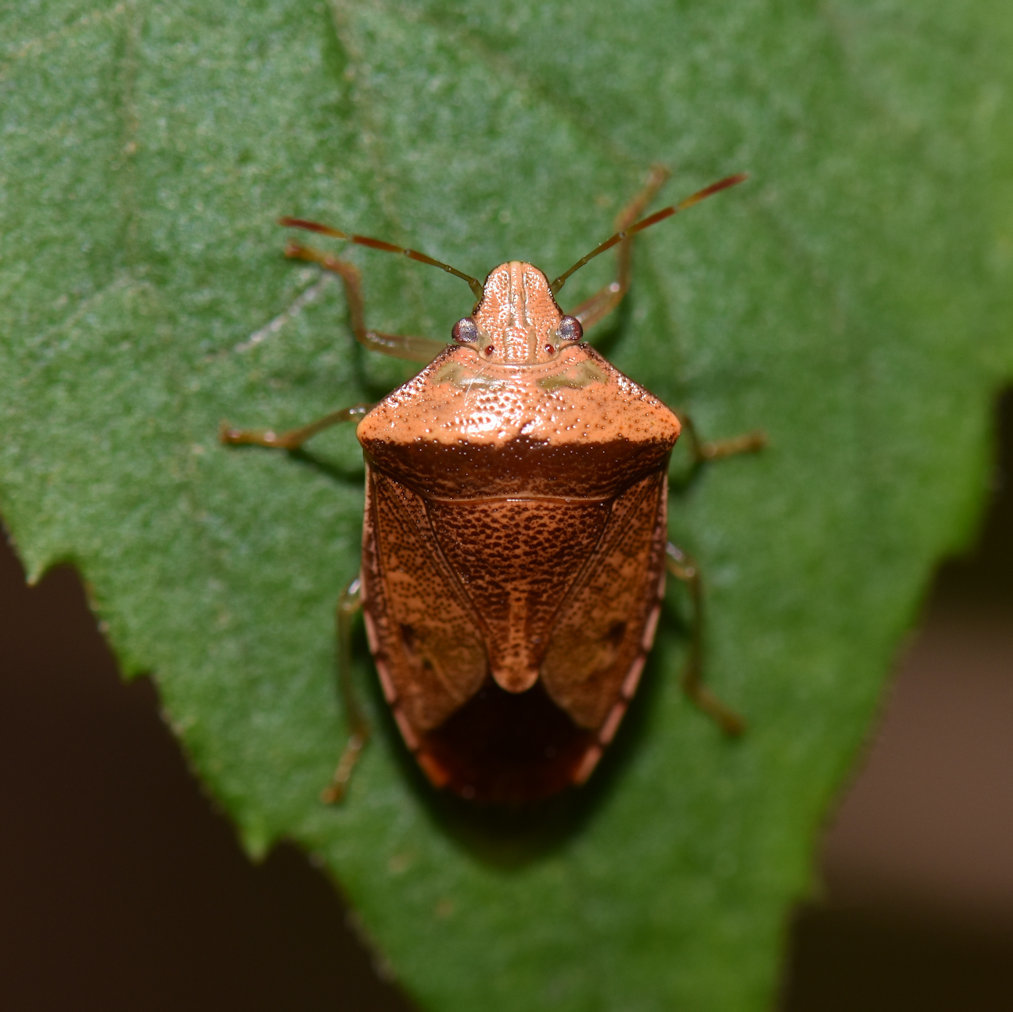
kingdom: Animalia
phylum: Arthropoda
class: Insecta
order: Hemiptera
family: Pentatomidae
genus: Banasa
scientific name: Banasa calva
